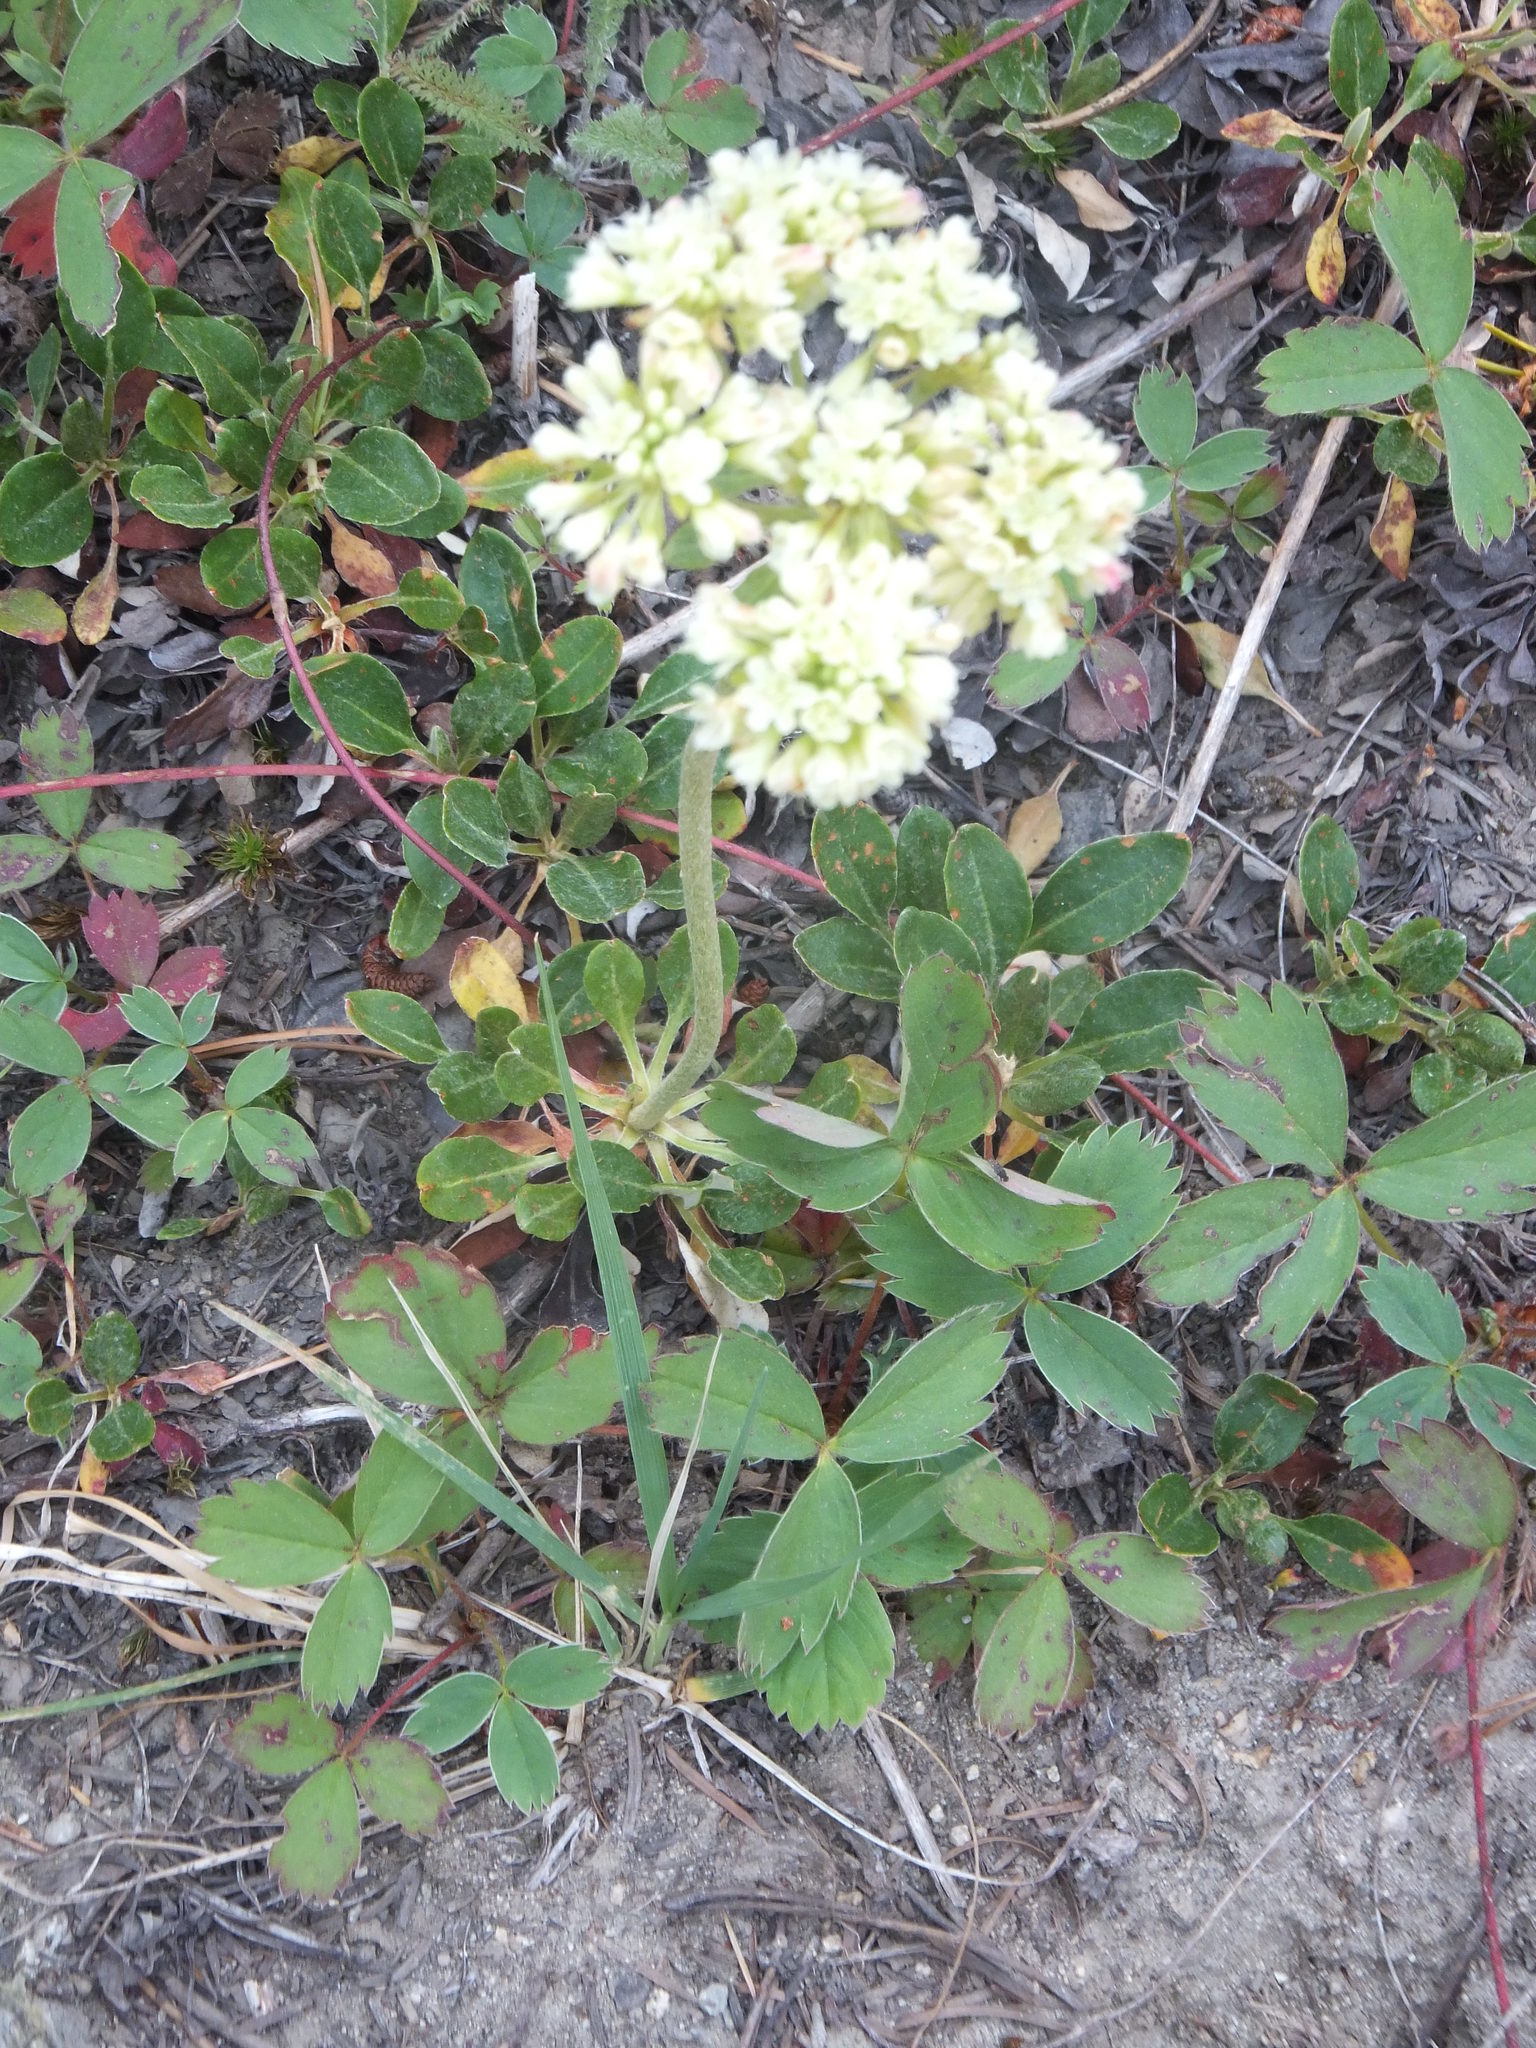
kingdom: Plantae
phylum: Tracheophyta
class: Magnoliopsida
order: Caryophyllales
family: Polygonaceae
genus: Eriogonum
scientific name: Eriogonum umbellatum
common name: Sulfur-buckwheat
